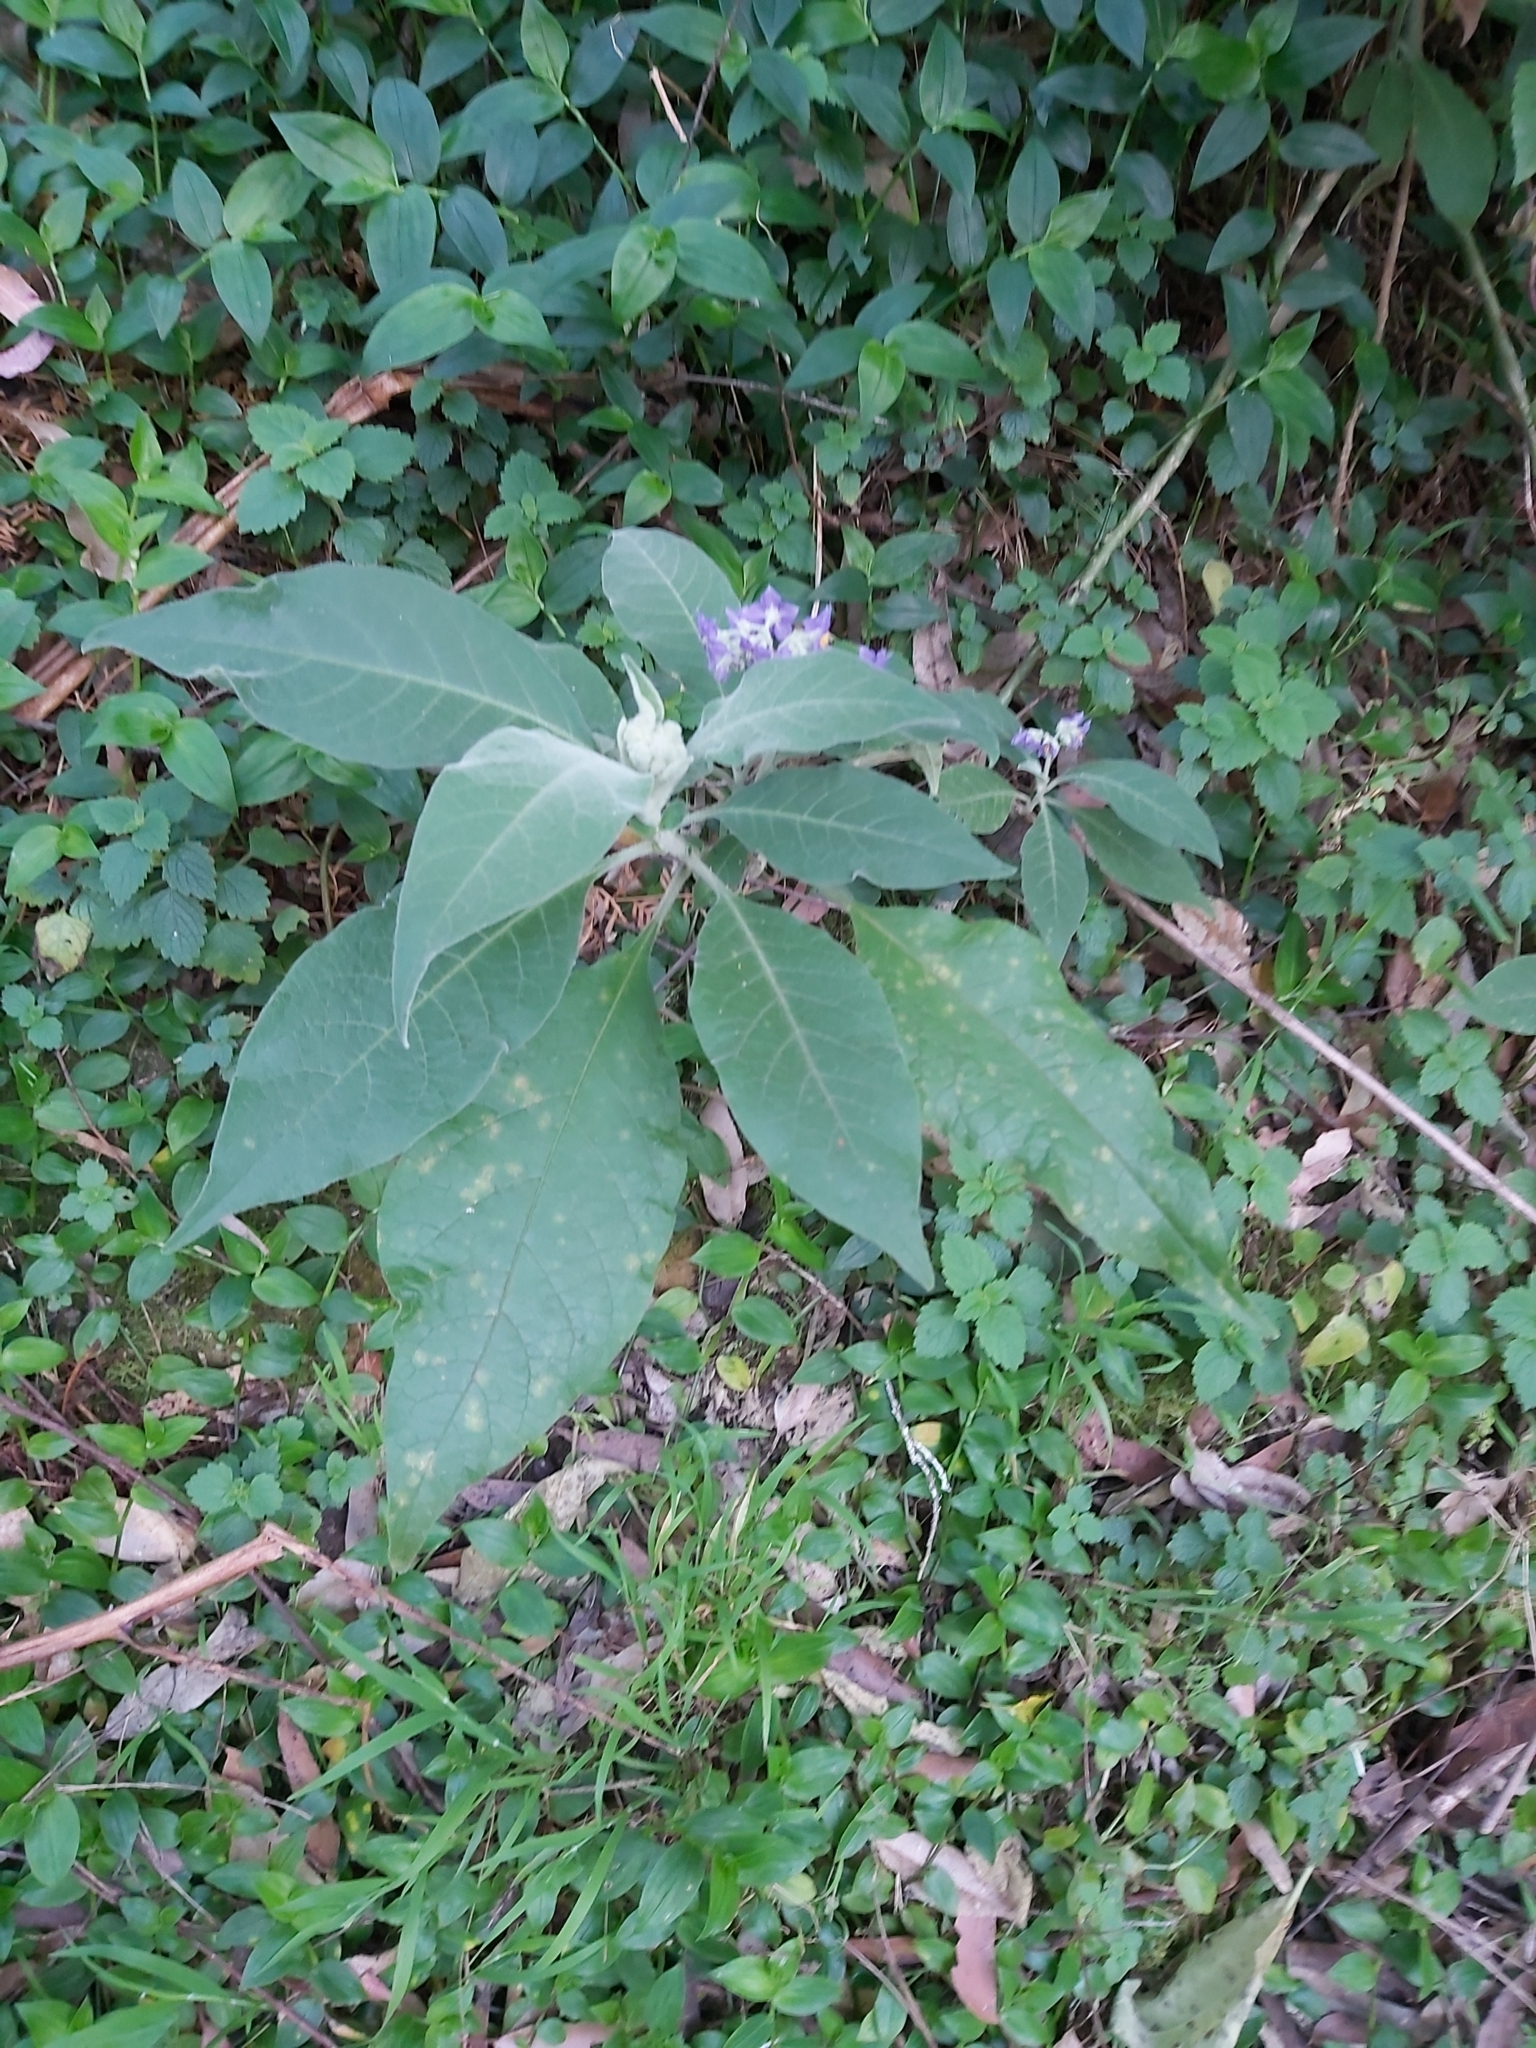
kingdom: Plantae
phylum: Tracheophyta
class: Magnoliopsida
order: Solanales
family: Solanaceae
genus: Solanum
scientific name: Solanum mauritianum
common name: Earleaf nightshade
